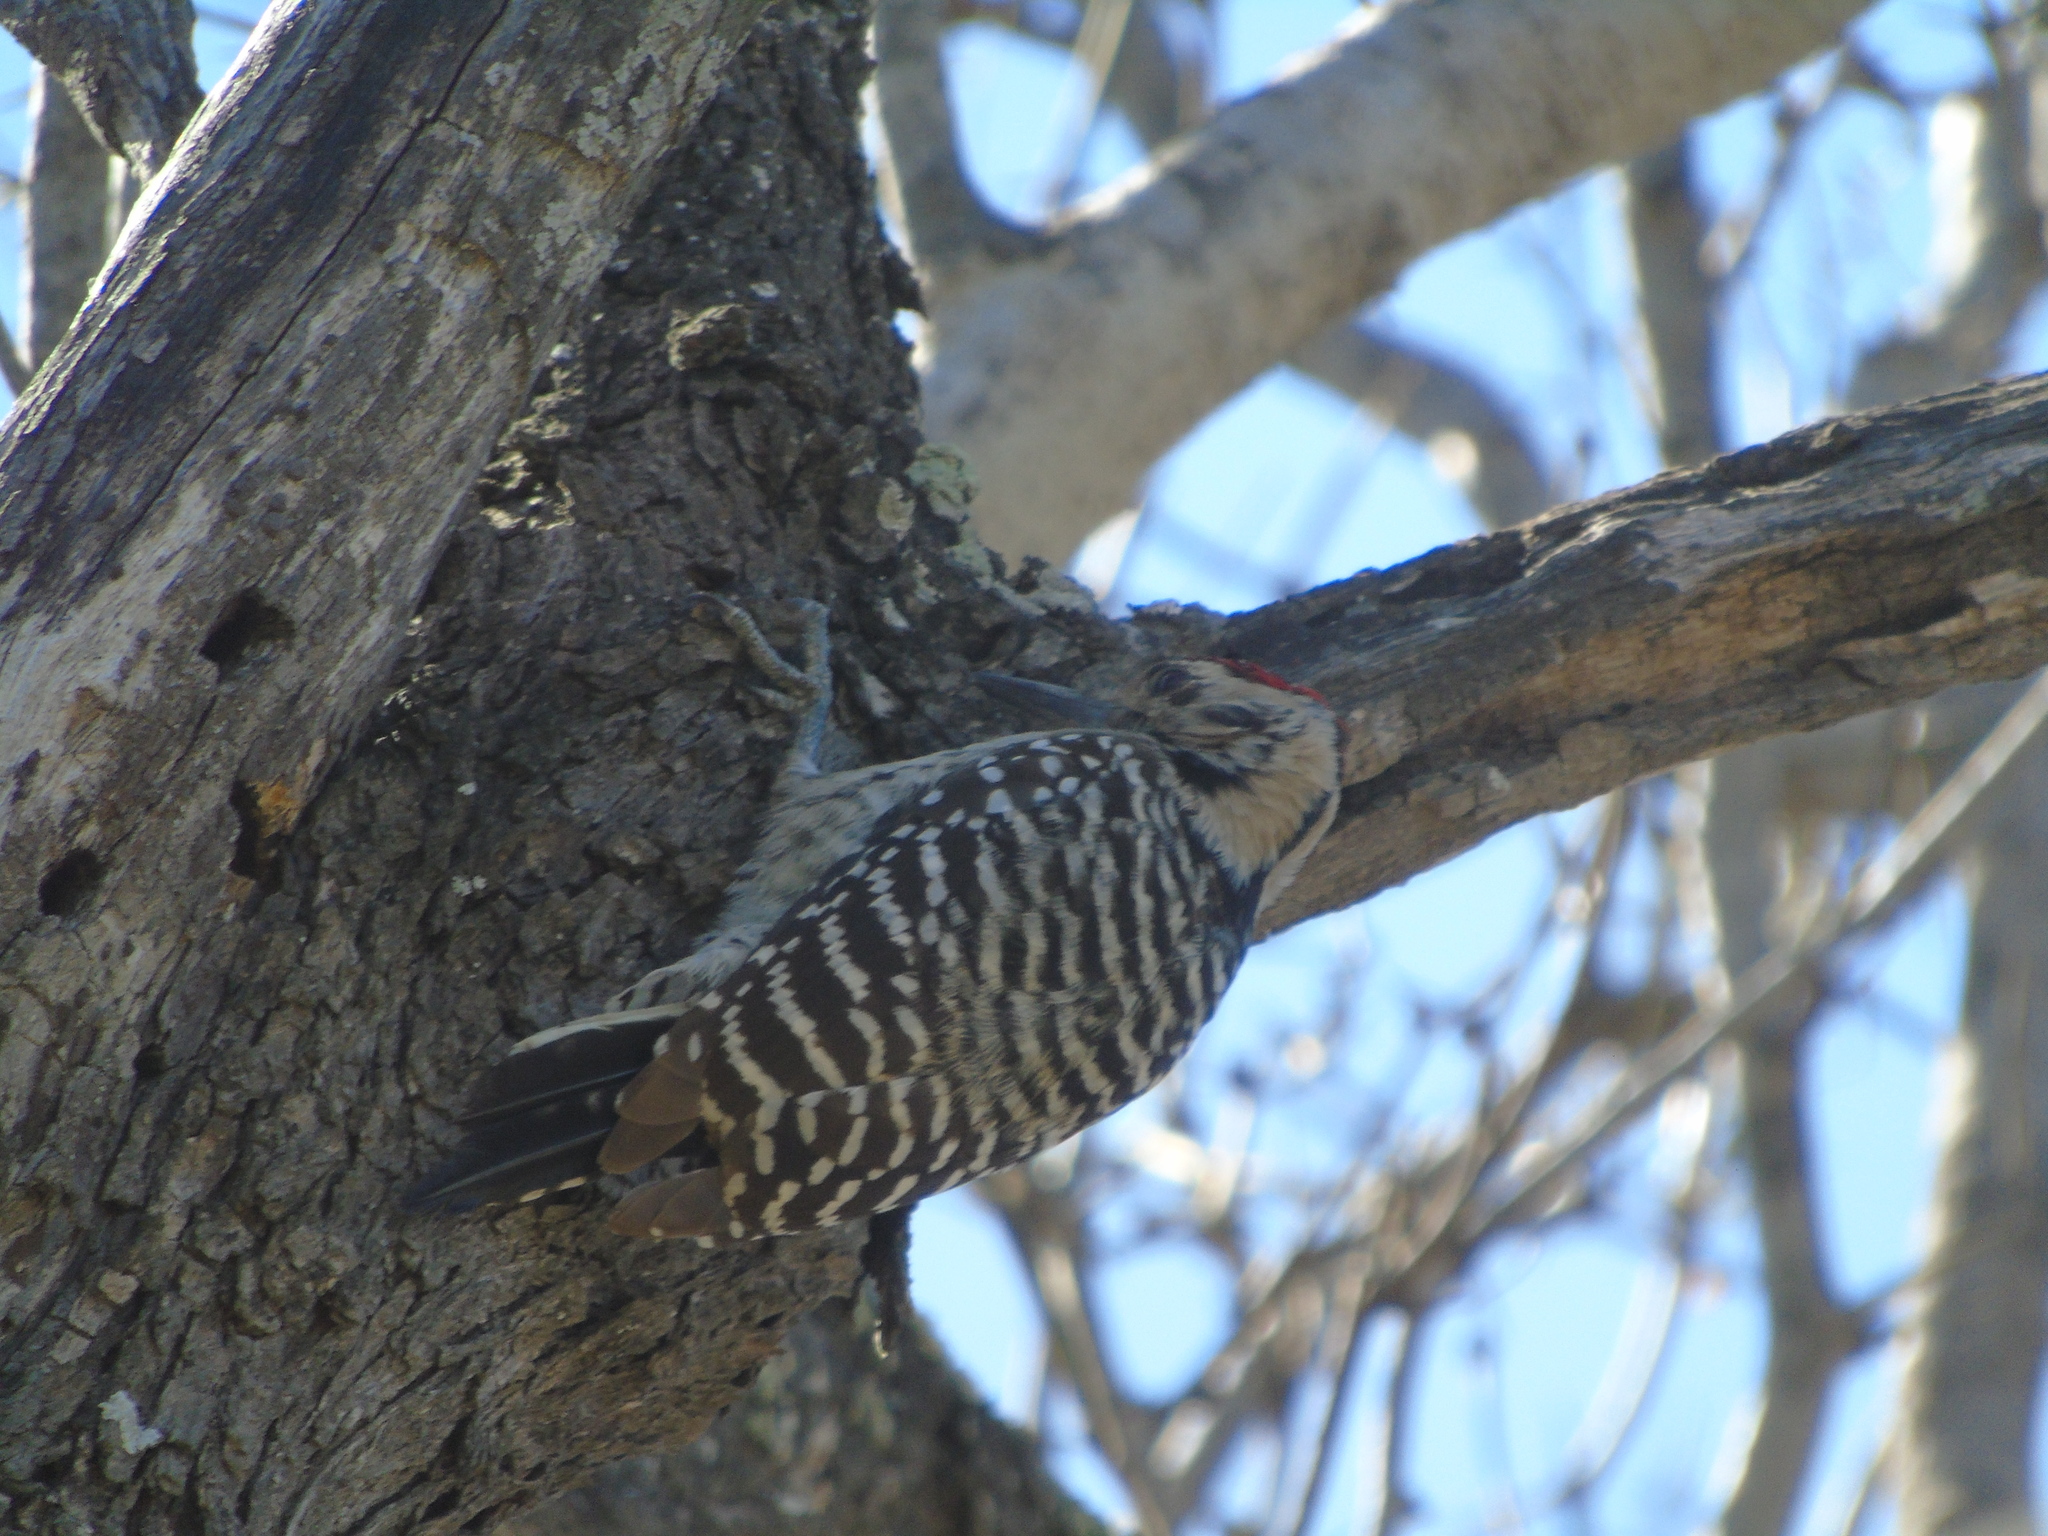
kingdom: Animalia
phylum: Chordata
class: Aves
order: Piciformes
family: Picidae
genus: Dryobates
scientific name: Dryobates scalaris
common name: Ladder-backed woodpecker
